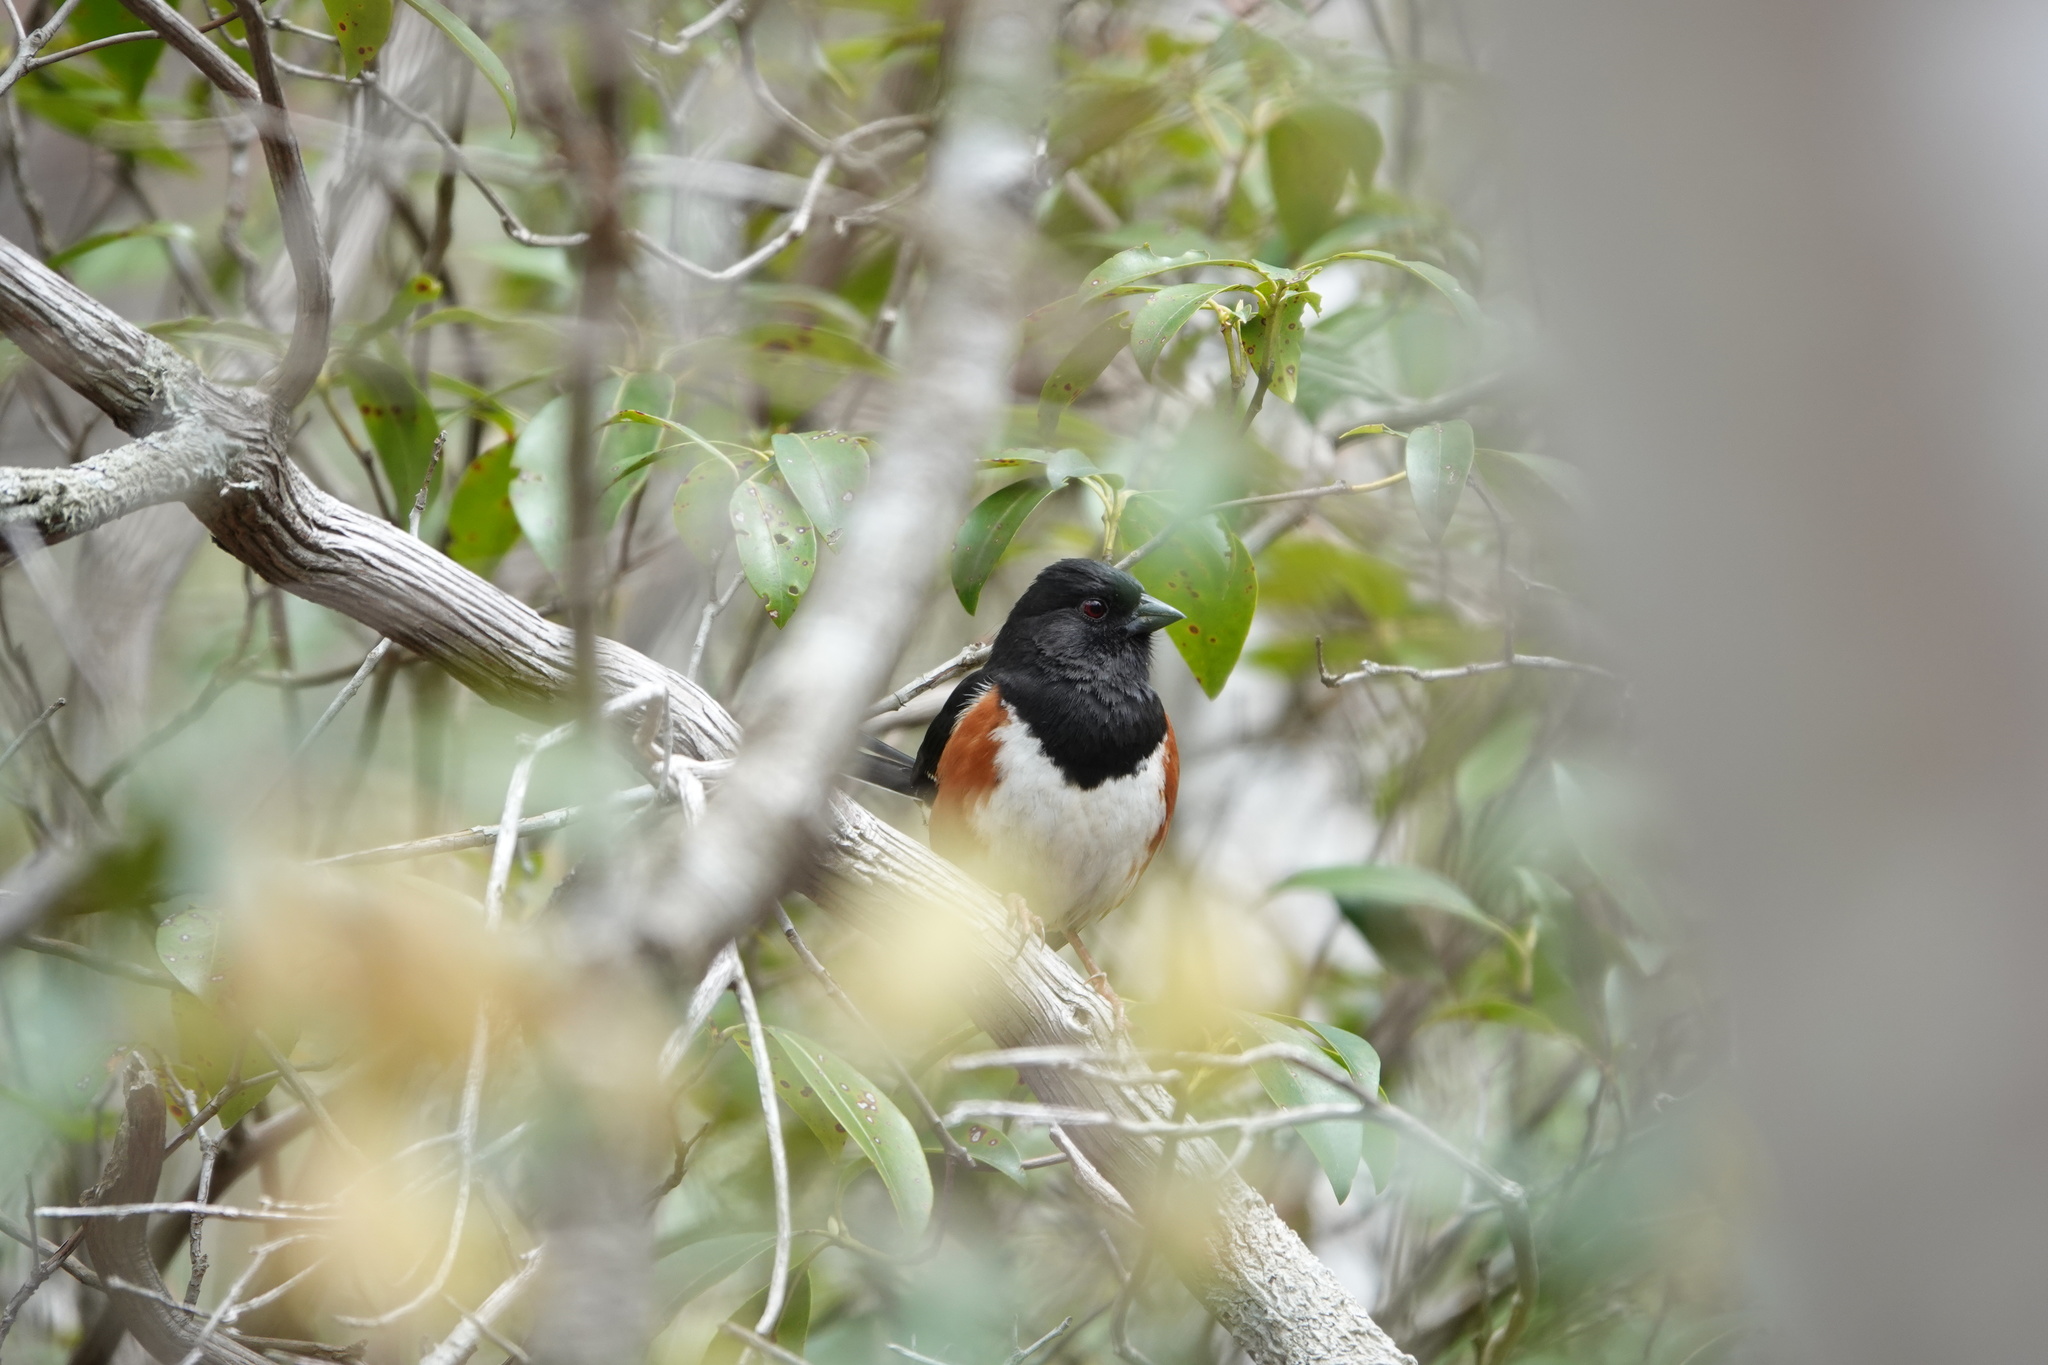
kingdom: Animalia
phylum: Chordata
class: Aves
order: Passeriformes
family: Passerellidae
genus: Pipilo
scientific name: Pipilo erythrophthalmus
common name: Eastern towhee
